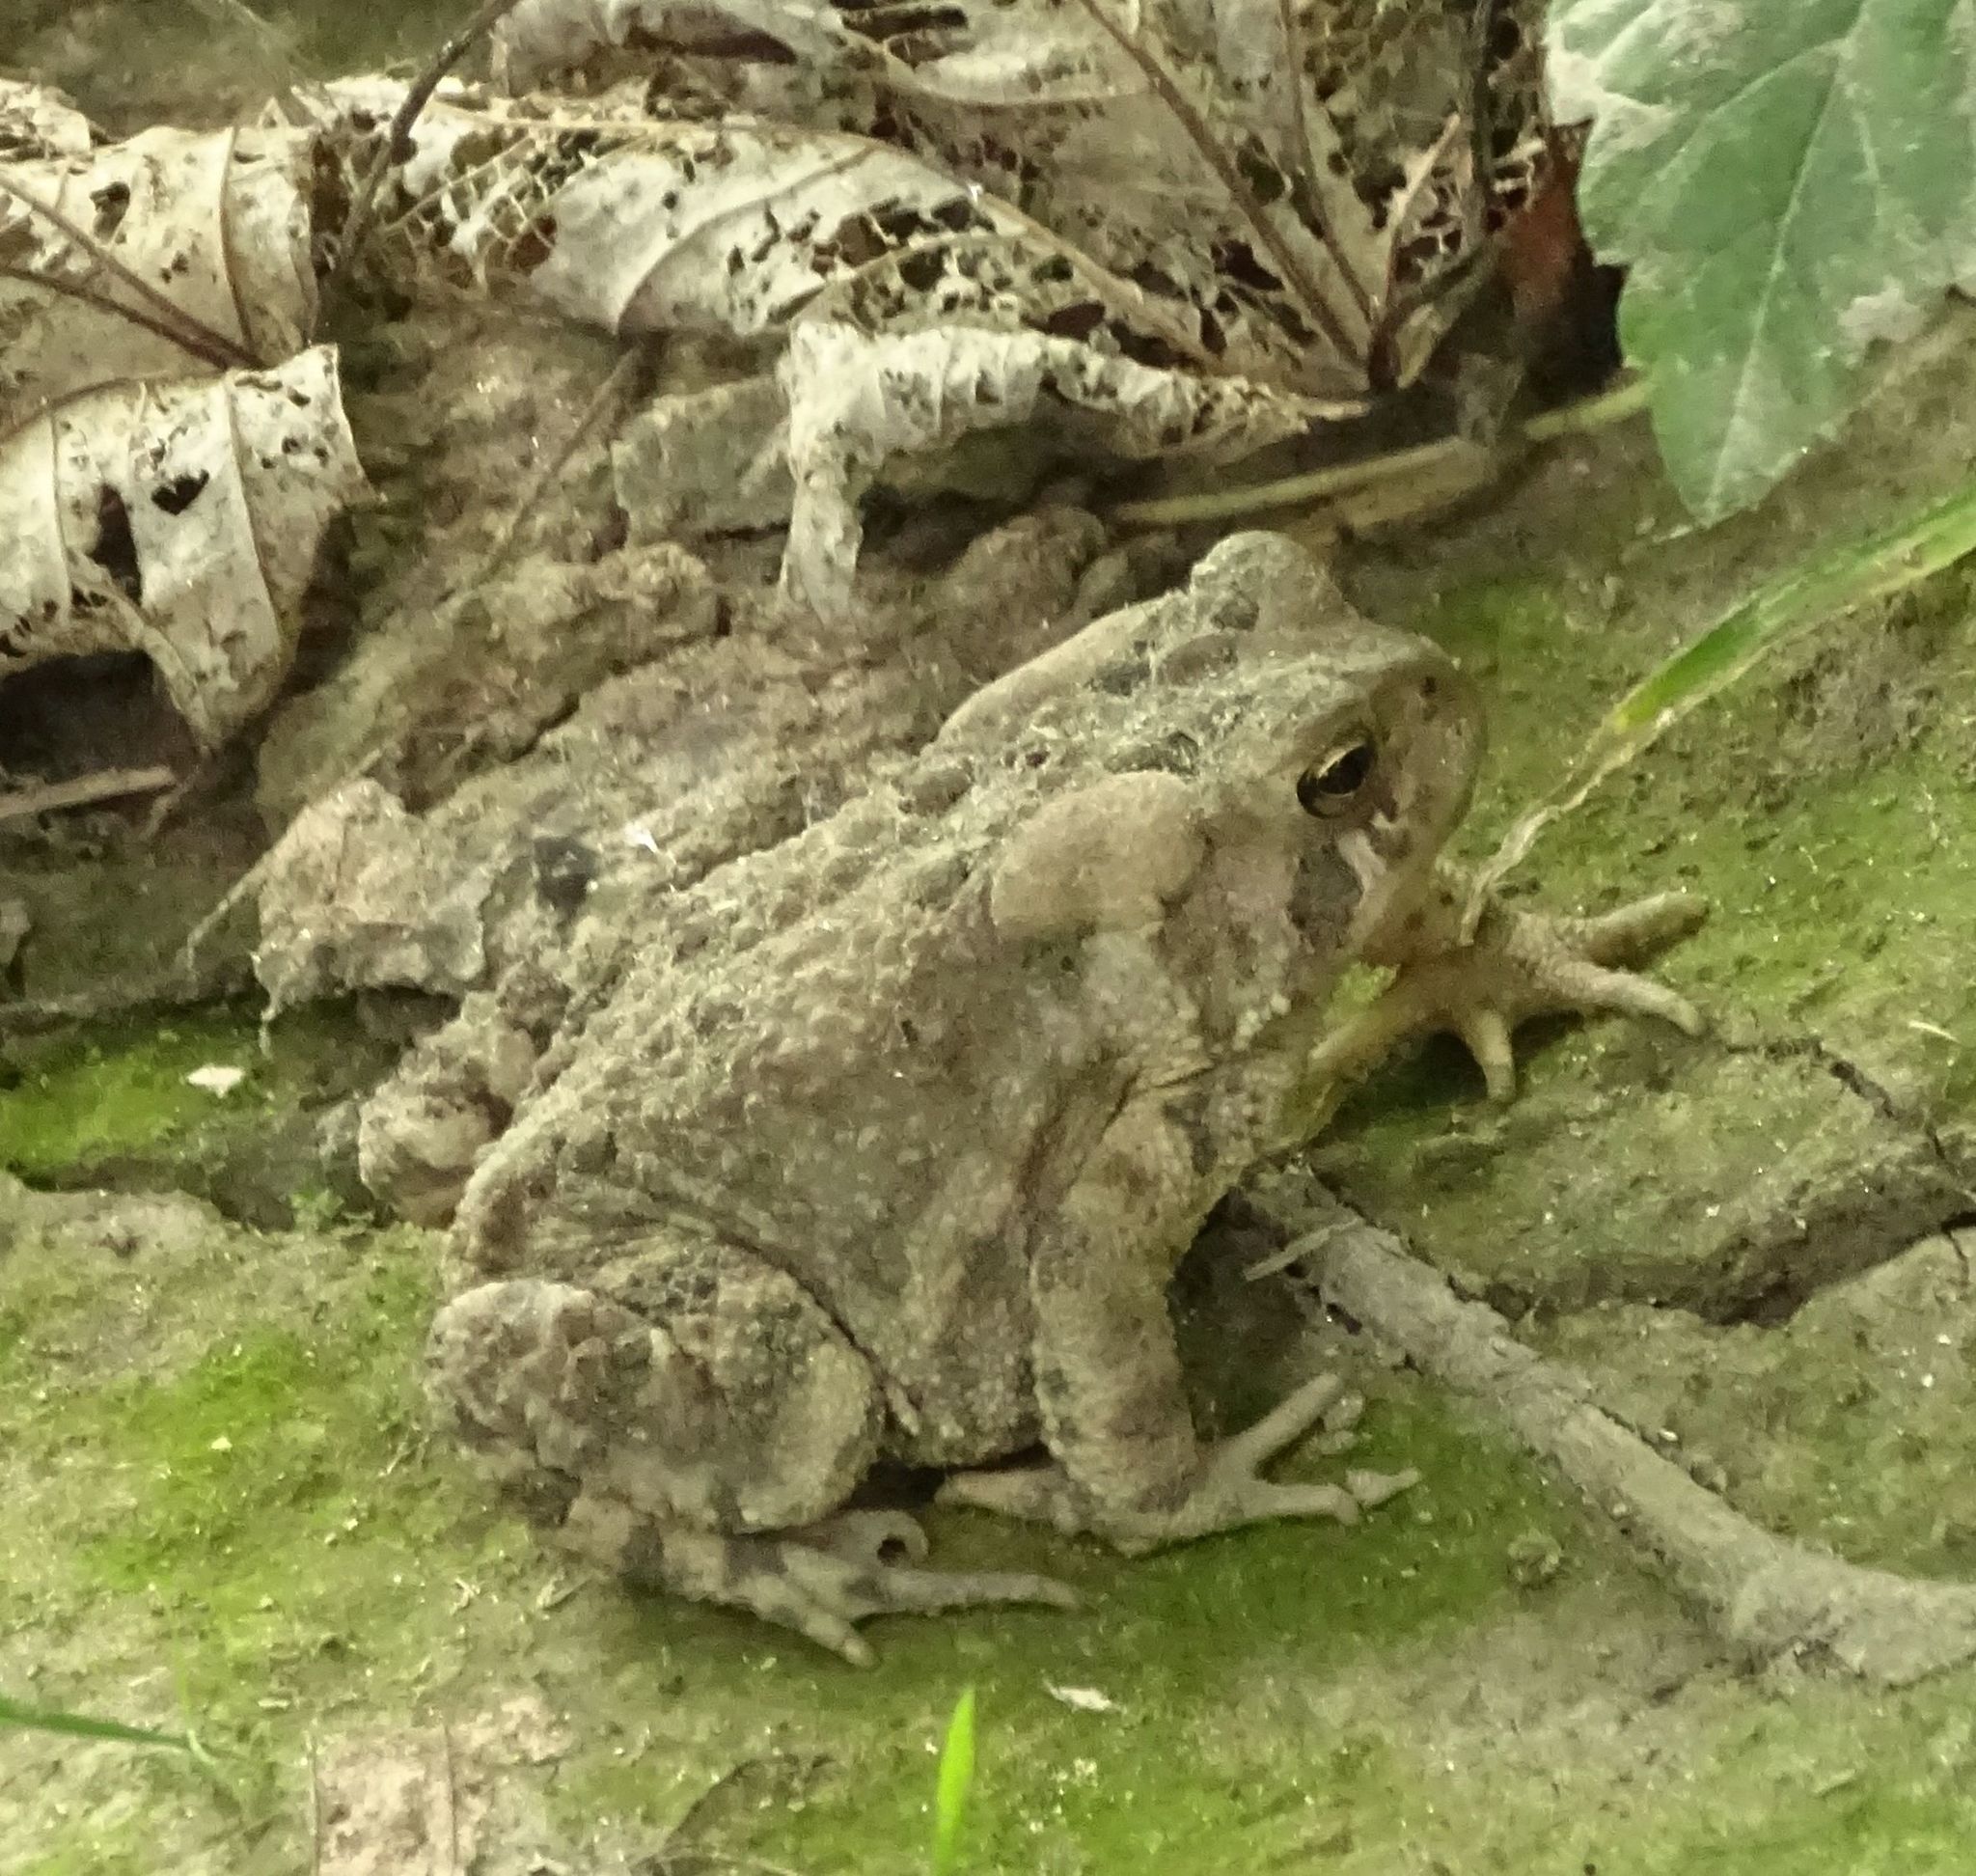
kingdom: Animalia
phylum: Chordata
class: Amphibia
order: Anura
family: Bufonidae
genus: Anaxyrus
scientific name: Anaxyrus americanus
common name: American toad
